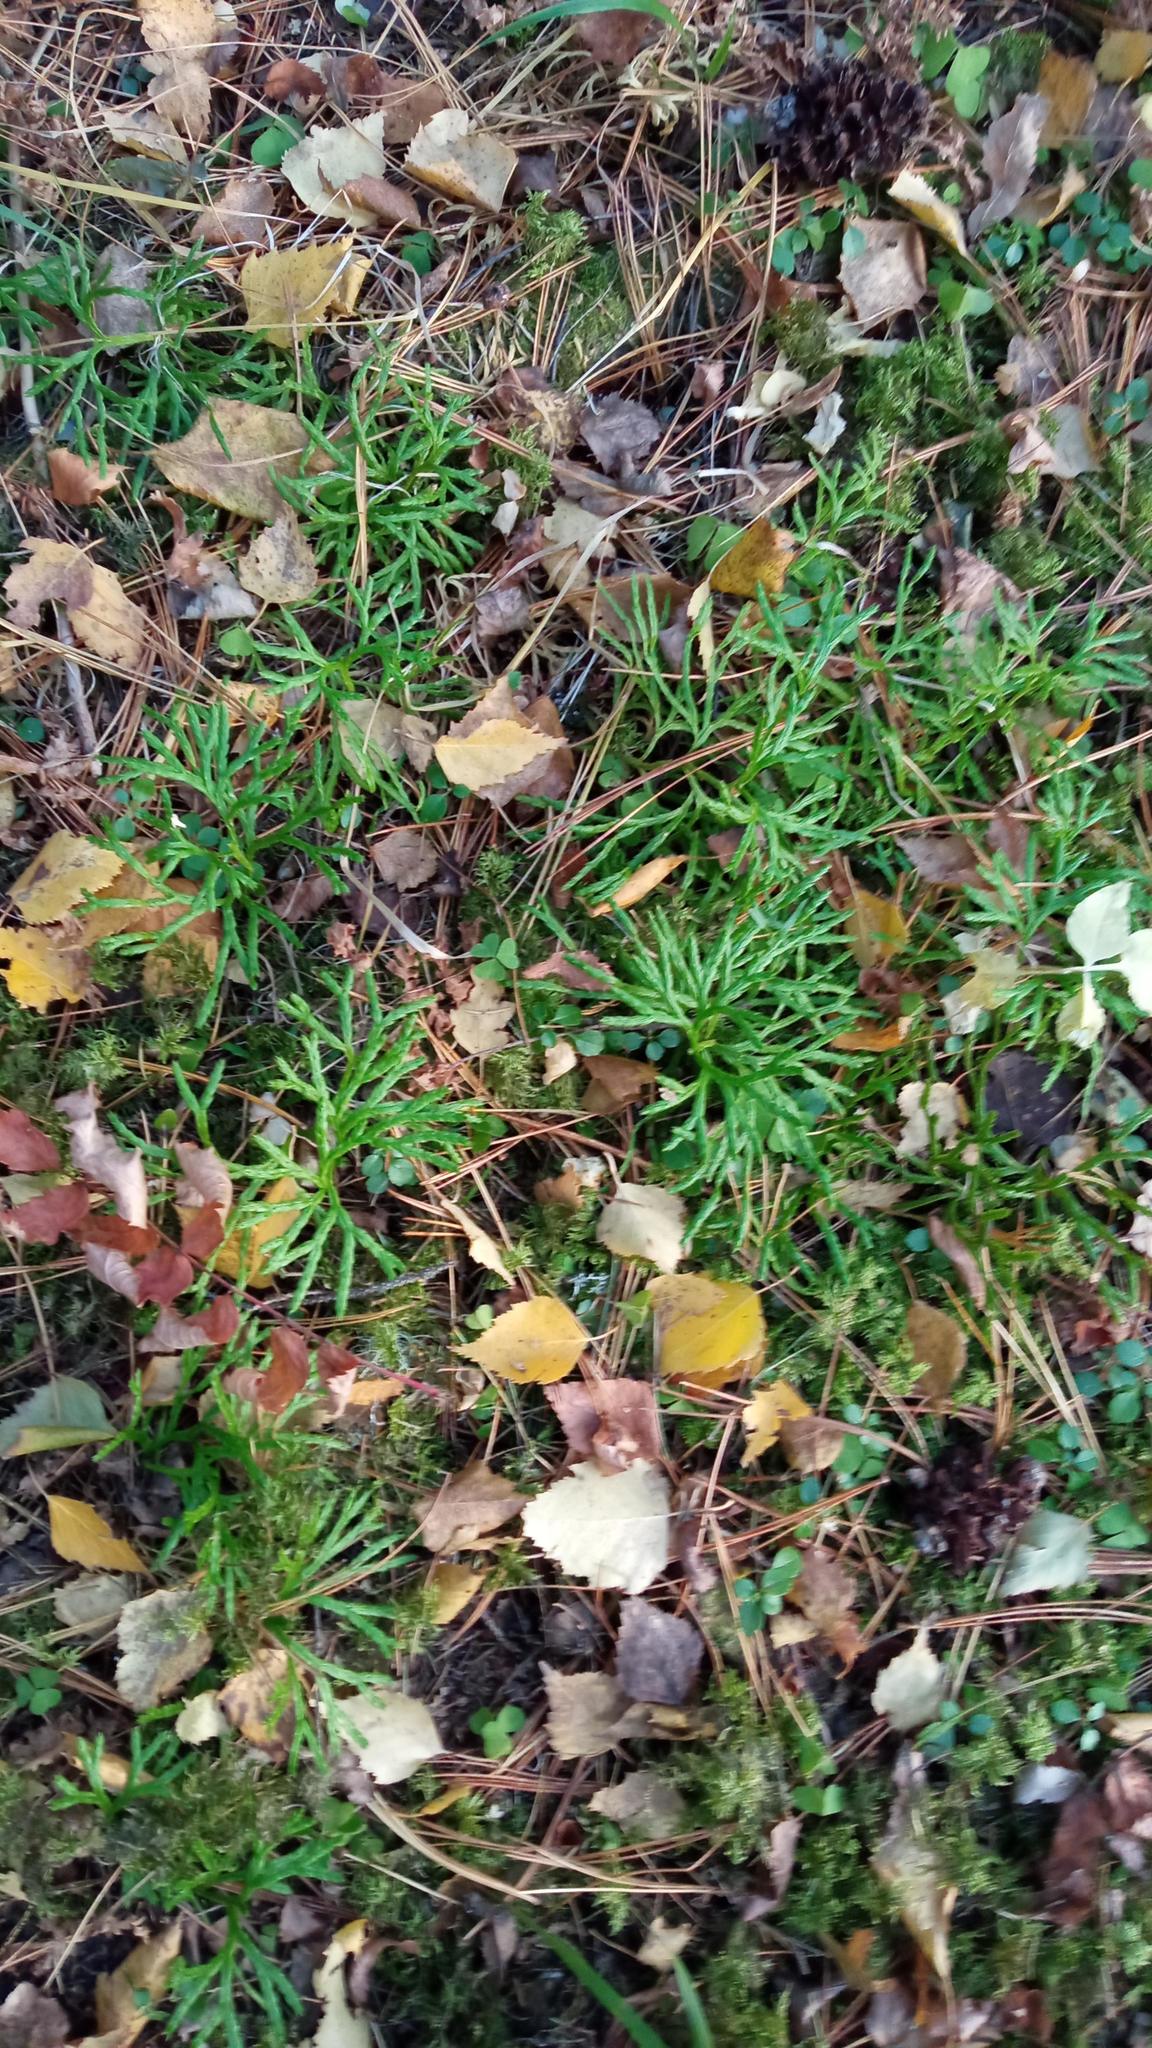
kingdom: Plantae
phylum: Tracheophyta
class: Lycopodiopsida
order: Lycopodiales
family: Lycopodiaceae
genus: Diphasiastrum
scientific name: Diphasiastrum complanatum
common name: Northern running-pine
